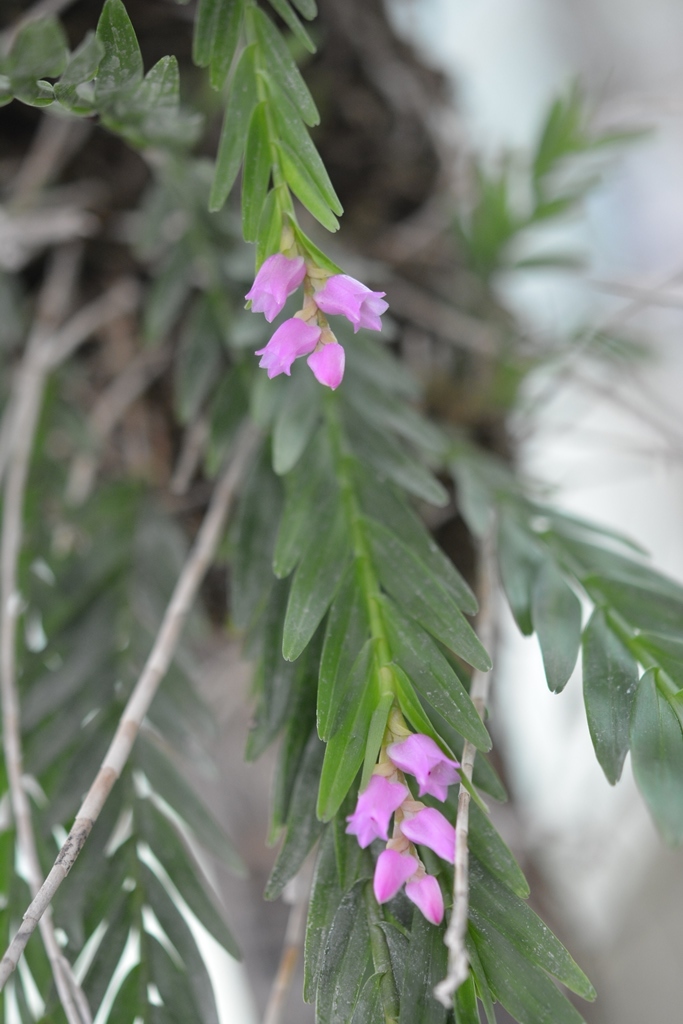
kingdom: Plantae
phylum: Tracheophyta
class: Liliopsida
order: Asparagales
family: Orchidaceae
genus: Isochilus
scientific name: Isochilus alatus
